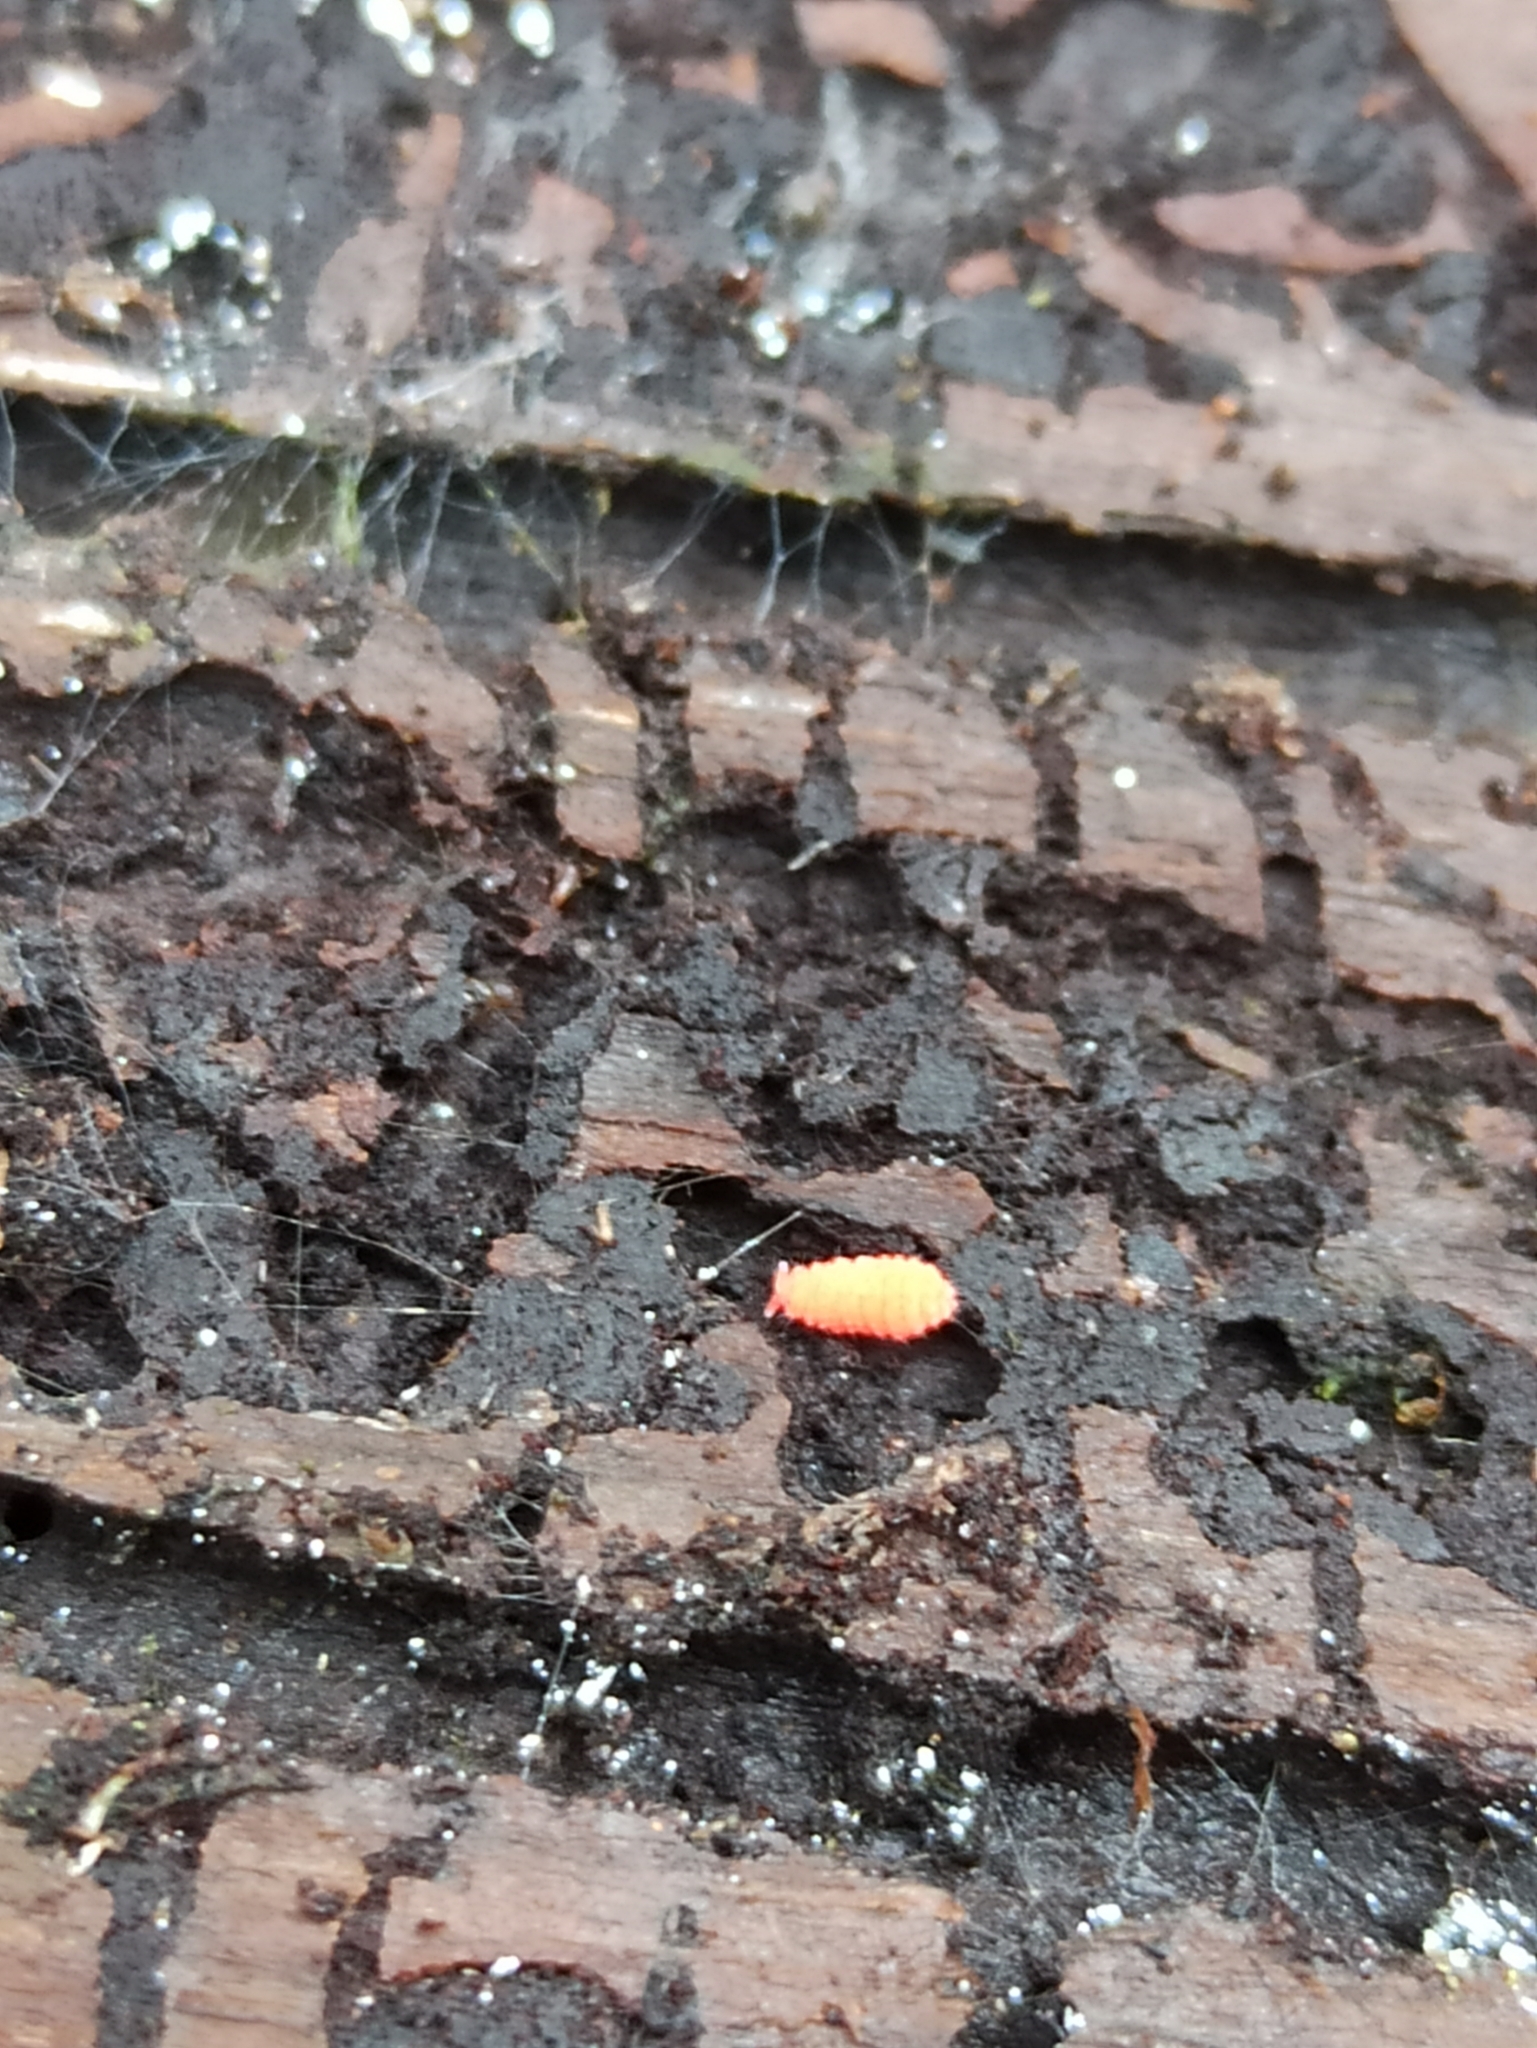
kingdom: Animalia
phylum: Arthropoda
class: Collembola
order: Poduromorpha
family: Neanuridae
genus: Bilobella
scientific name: Bilobella braunerae
